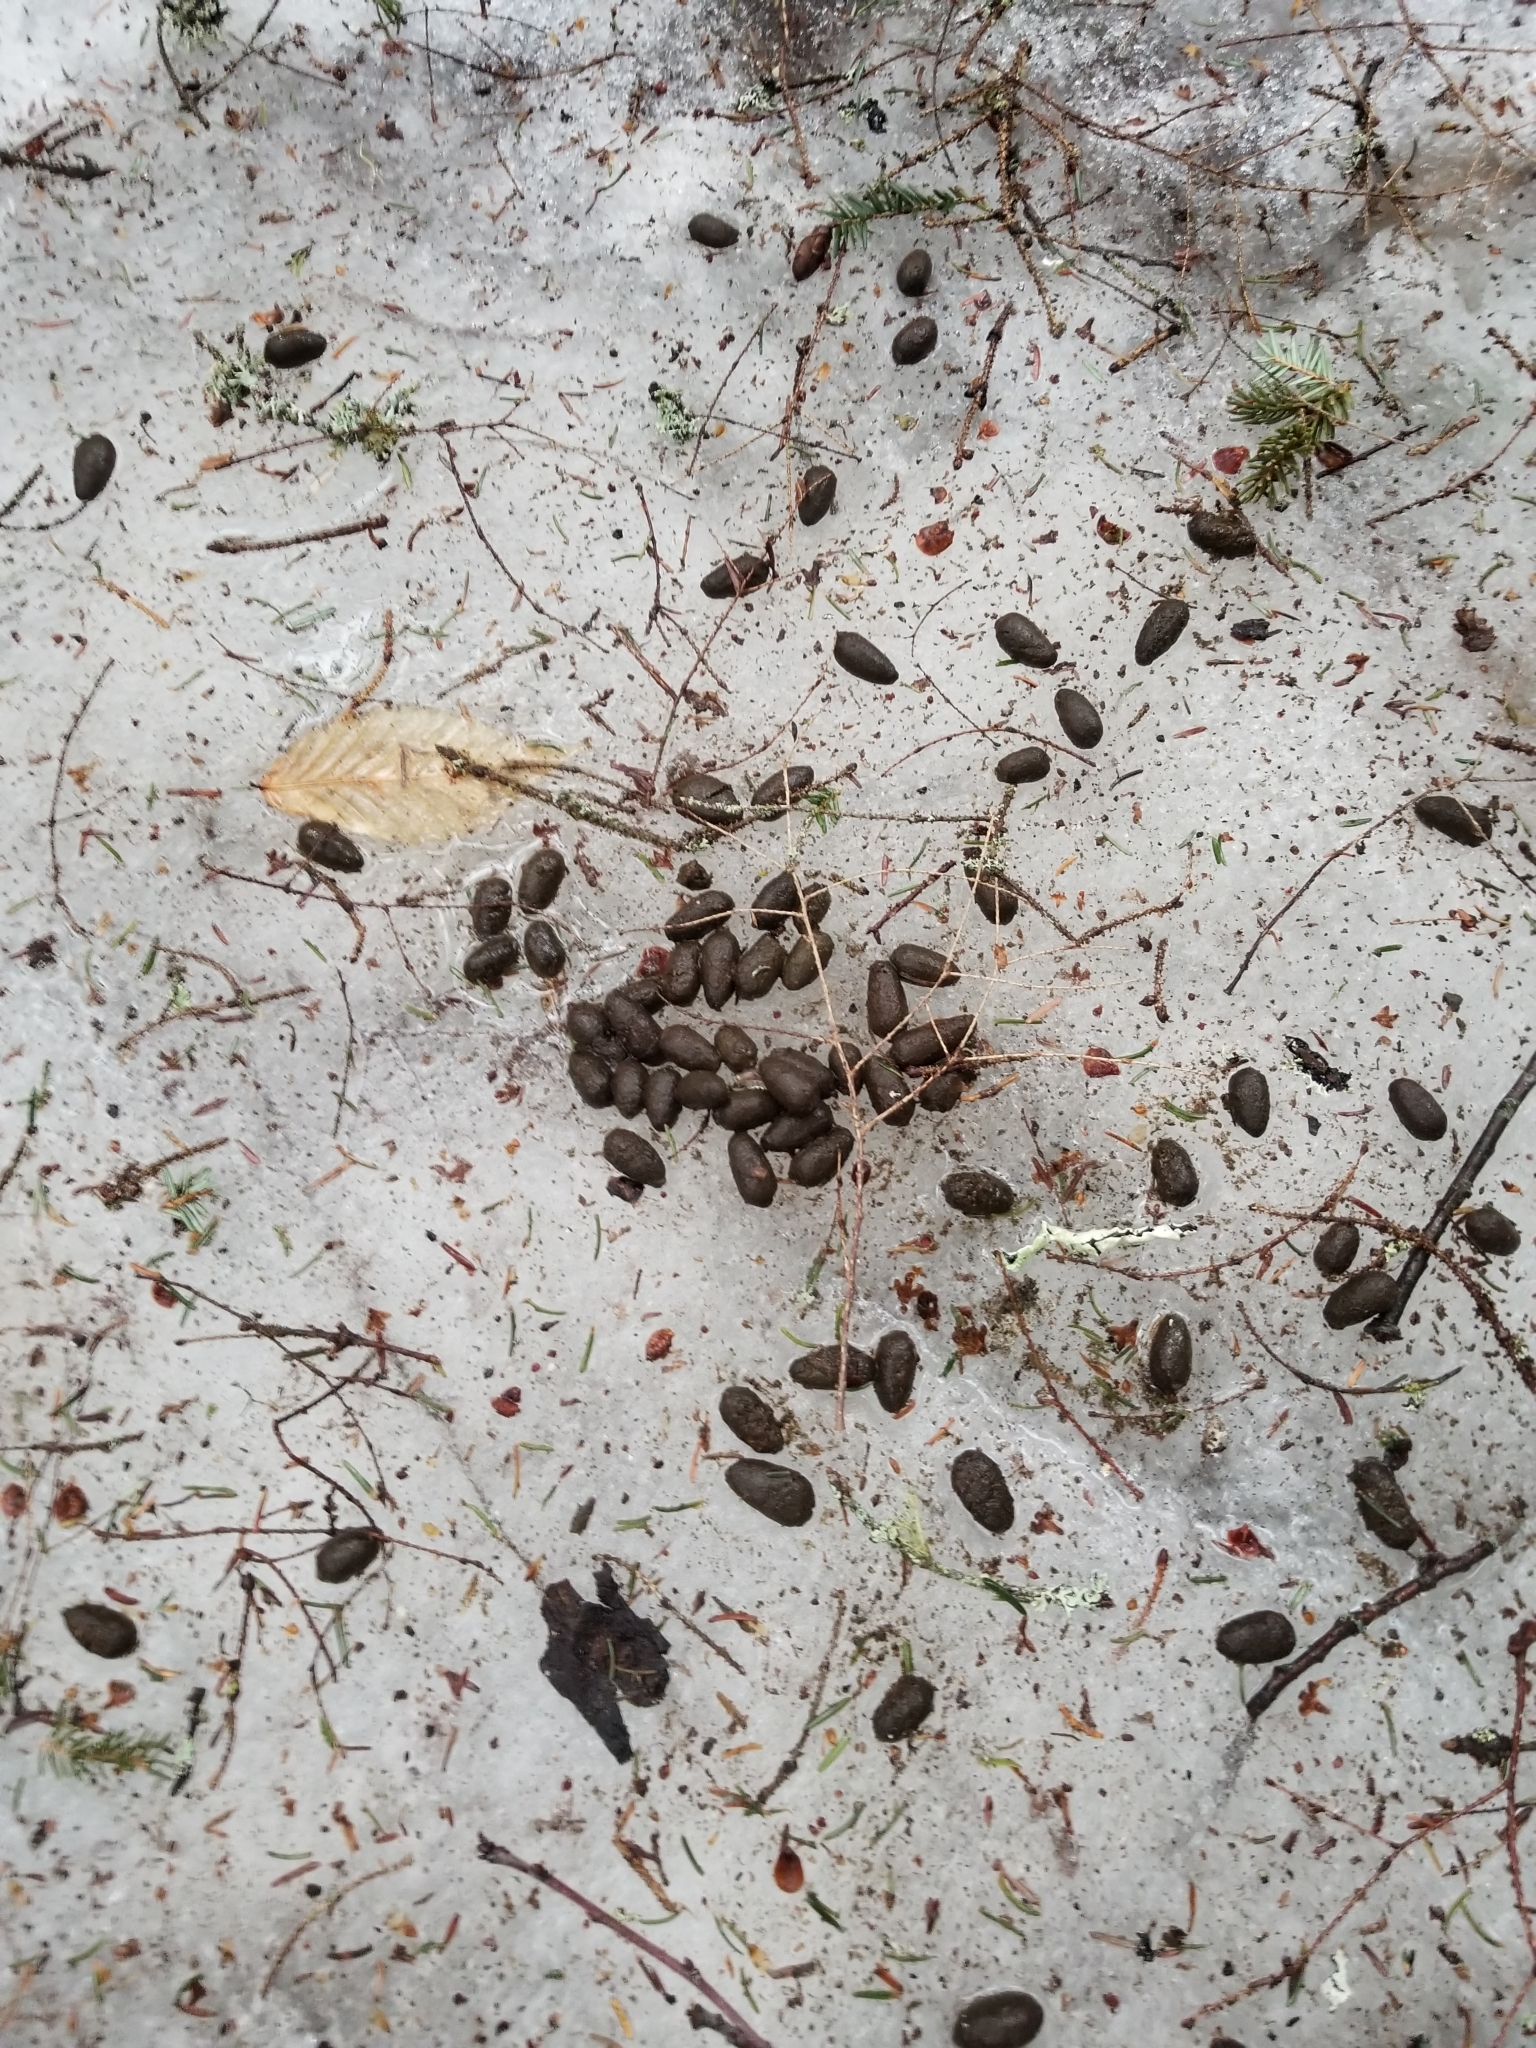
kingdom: Animalia
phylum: Chordata
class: Mammalia
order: Artiodactyla
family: Cervidae
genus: Odocoileus
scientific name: Odocoileus virginianus
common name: White-tailed deer
